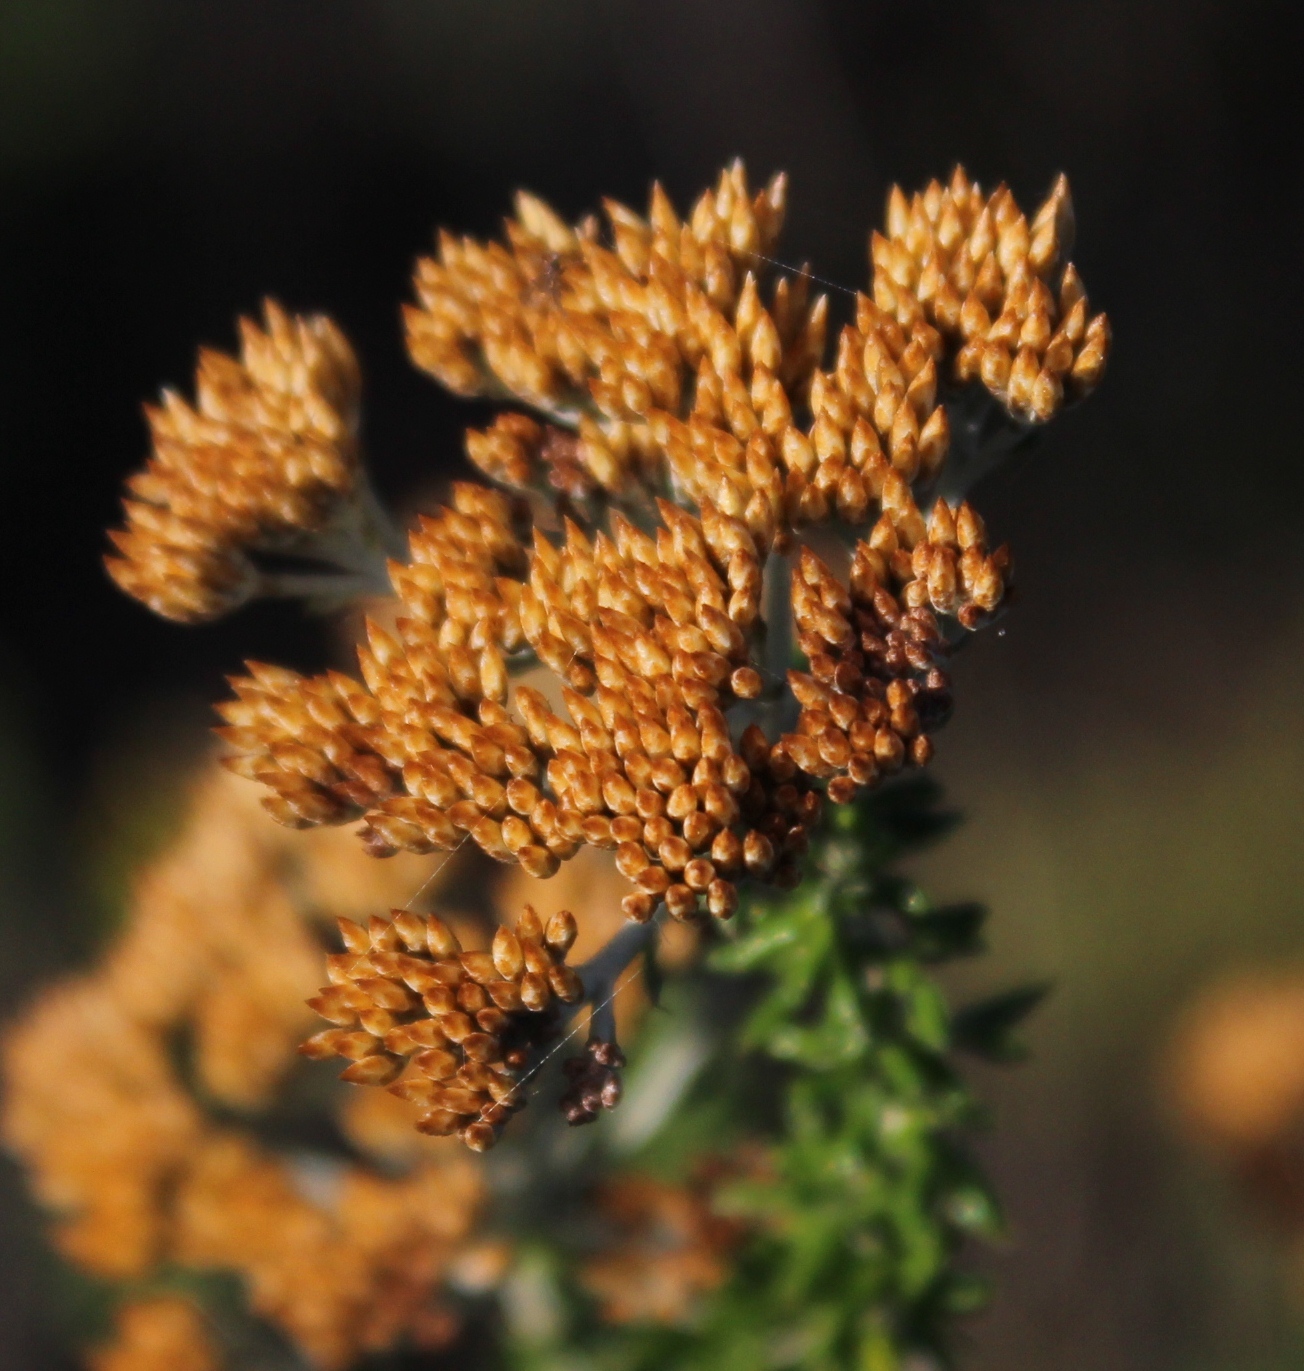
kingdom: Plantae
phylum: Tracheophyta
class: Magnoliopsida
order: Asterales
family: Asteraceae
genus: Metalasia
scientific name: Metalasia densa
